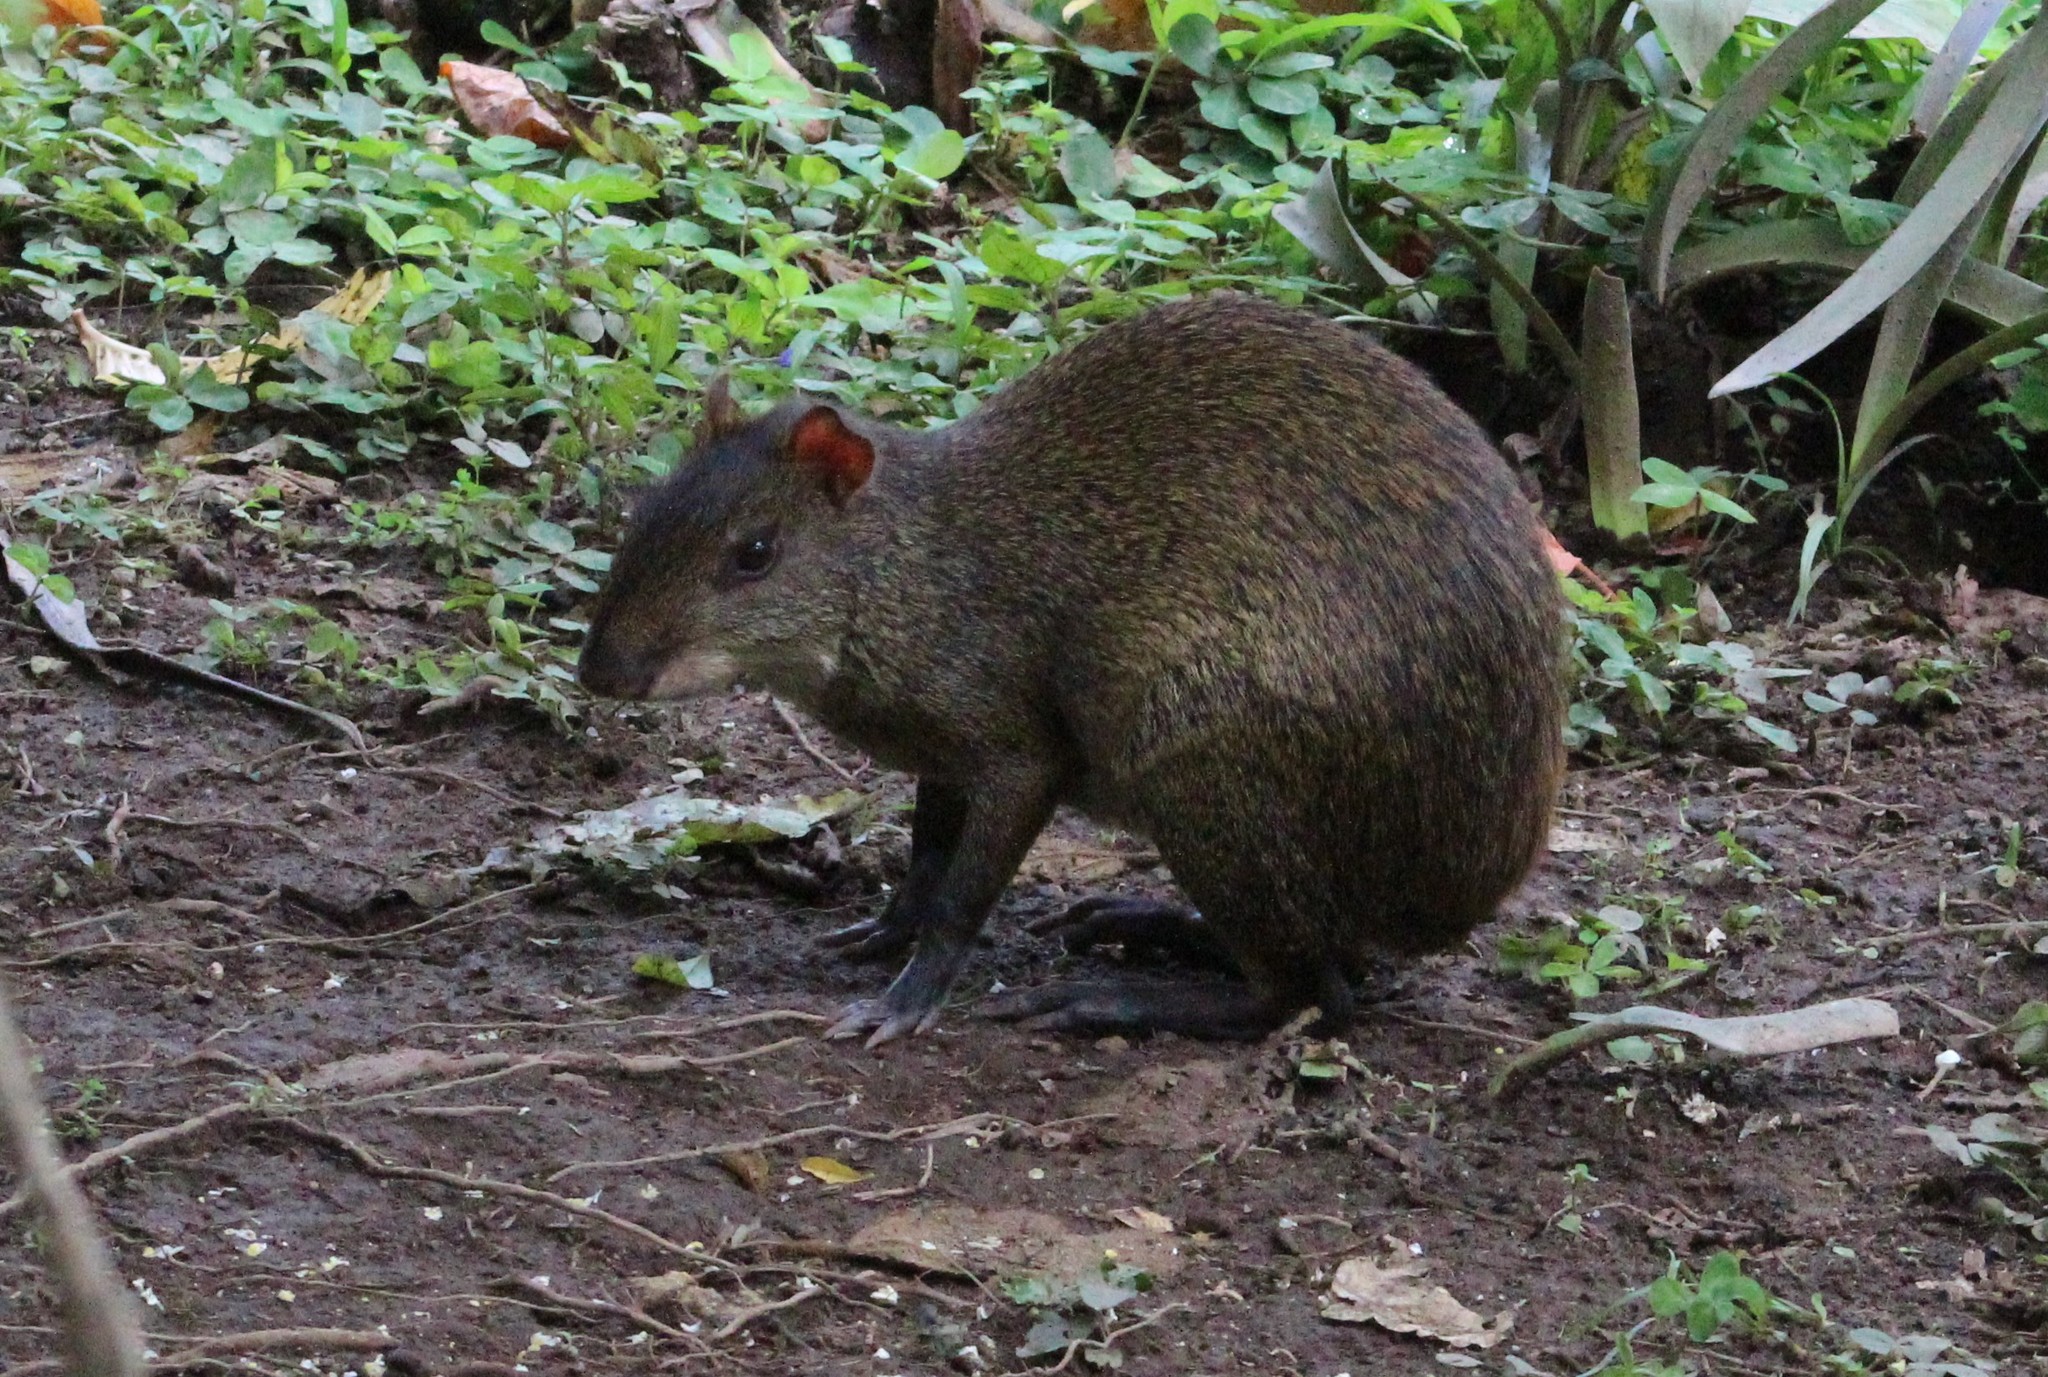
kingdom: Animalia
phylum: Chordata
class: Mammalia
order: Rodentia
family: Dasyproctidae
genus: Dasyprocta
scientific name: Dasyprocta punctata
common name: Central american agouti
